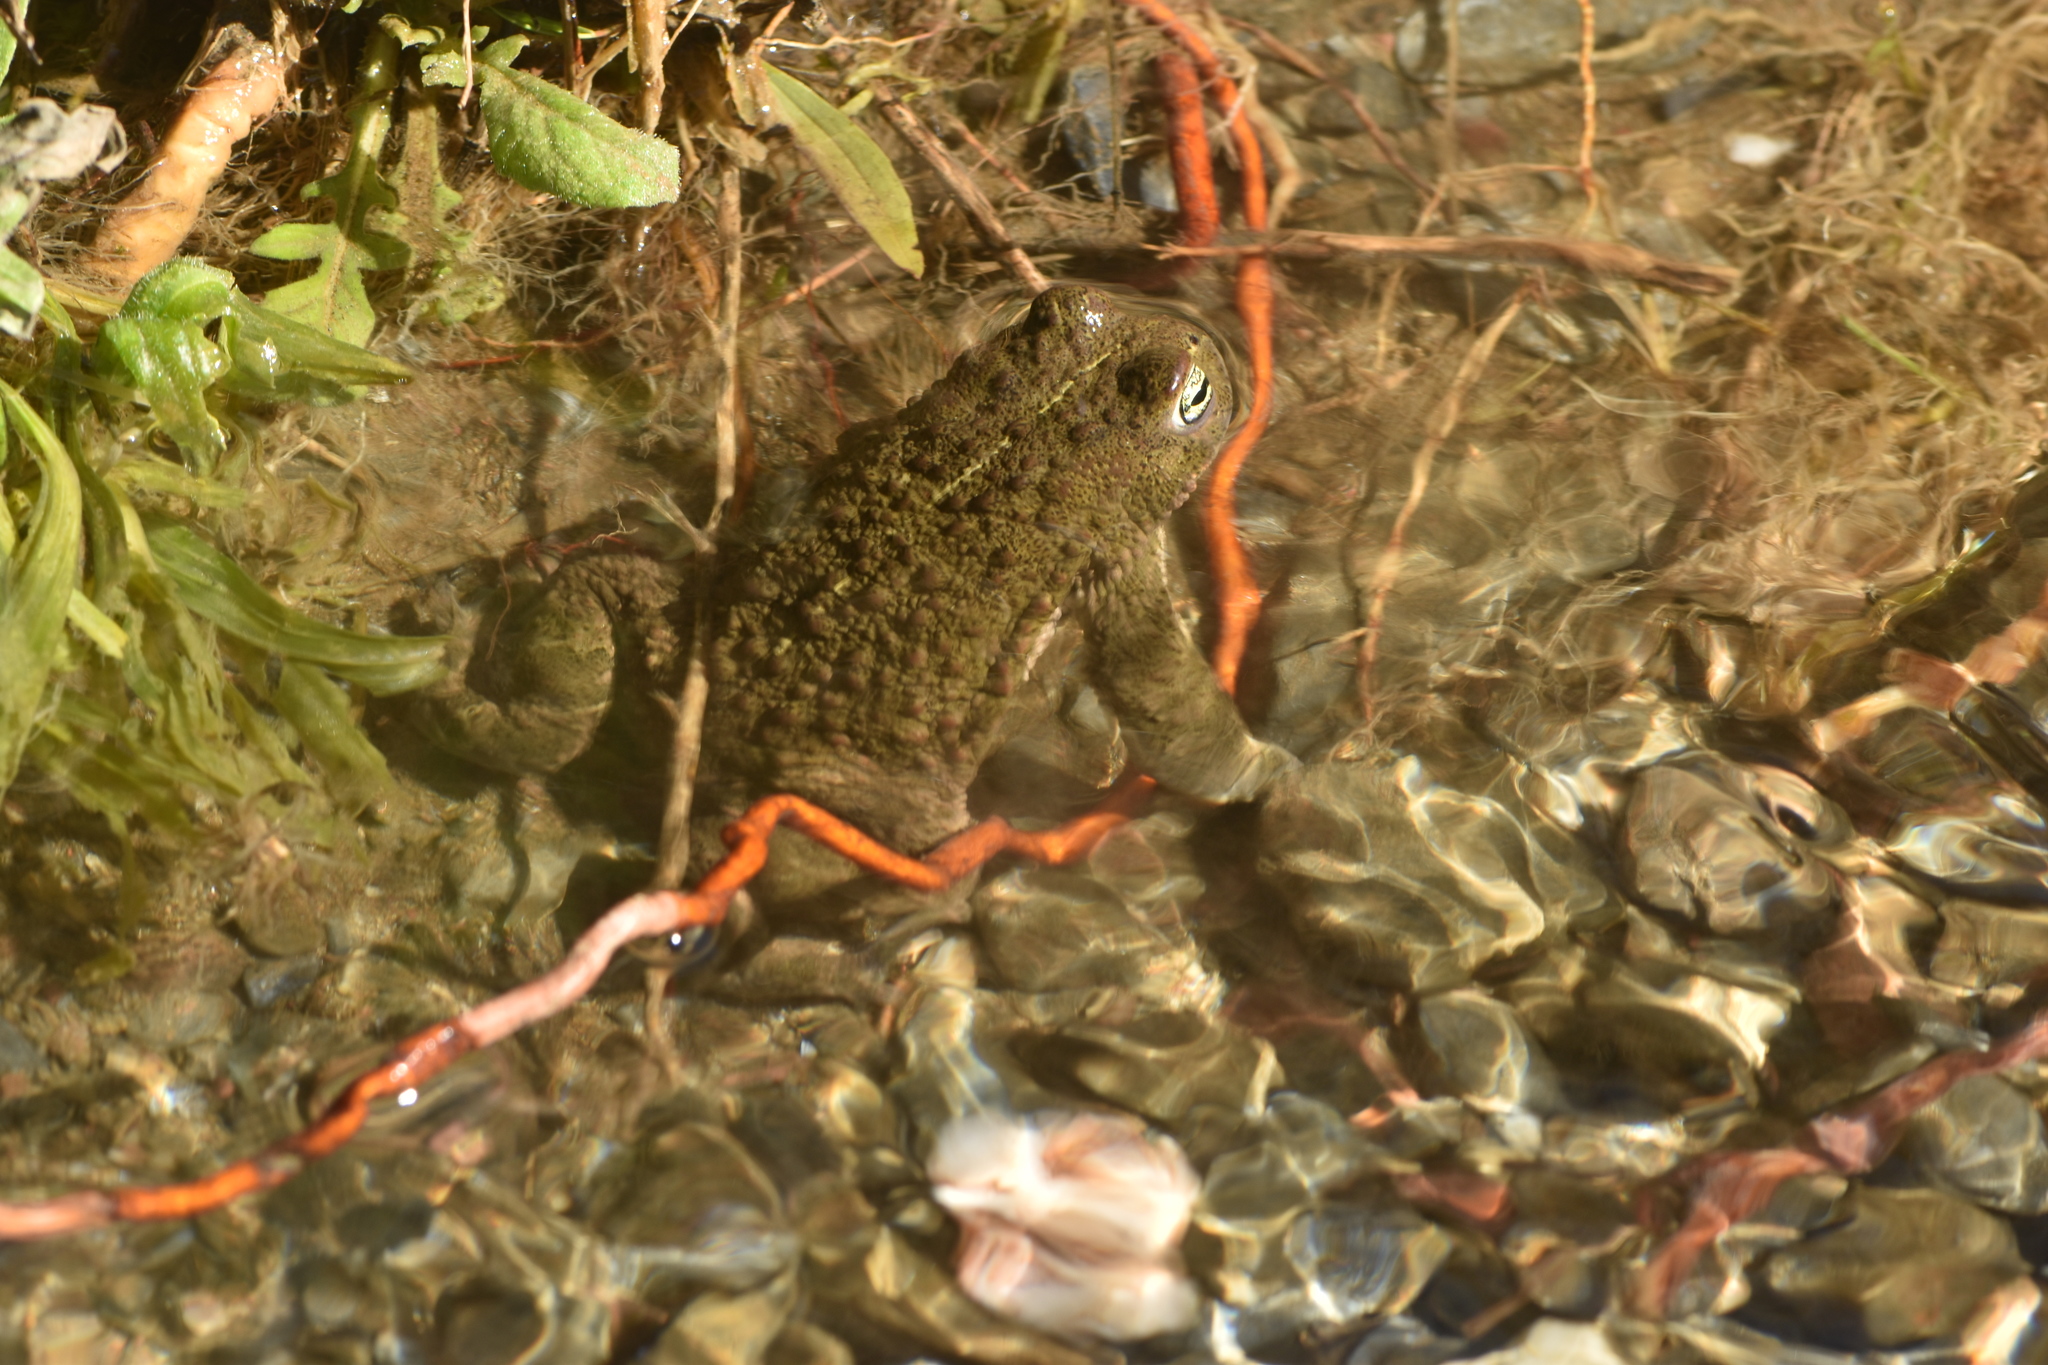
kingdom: Animalia
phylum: Chordata
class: Amphibia
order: Anura
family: Bufonidae
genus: Epidalea
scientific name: Epidalea calamita
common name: Natterjack toad
